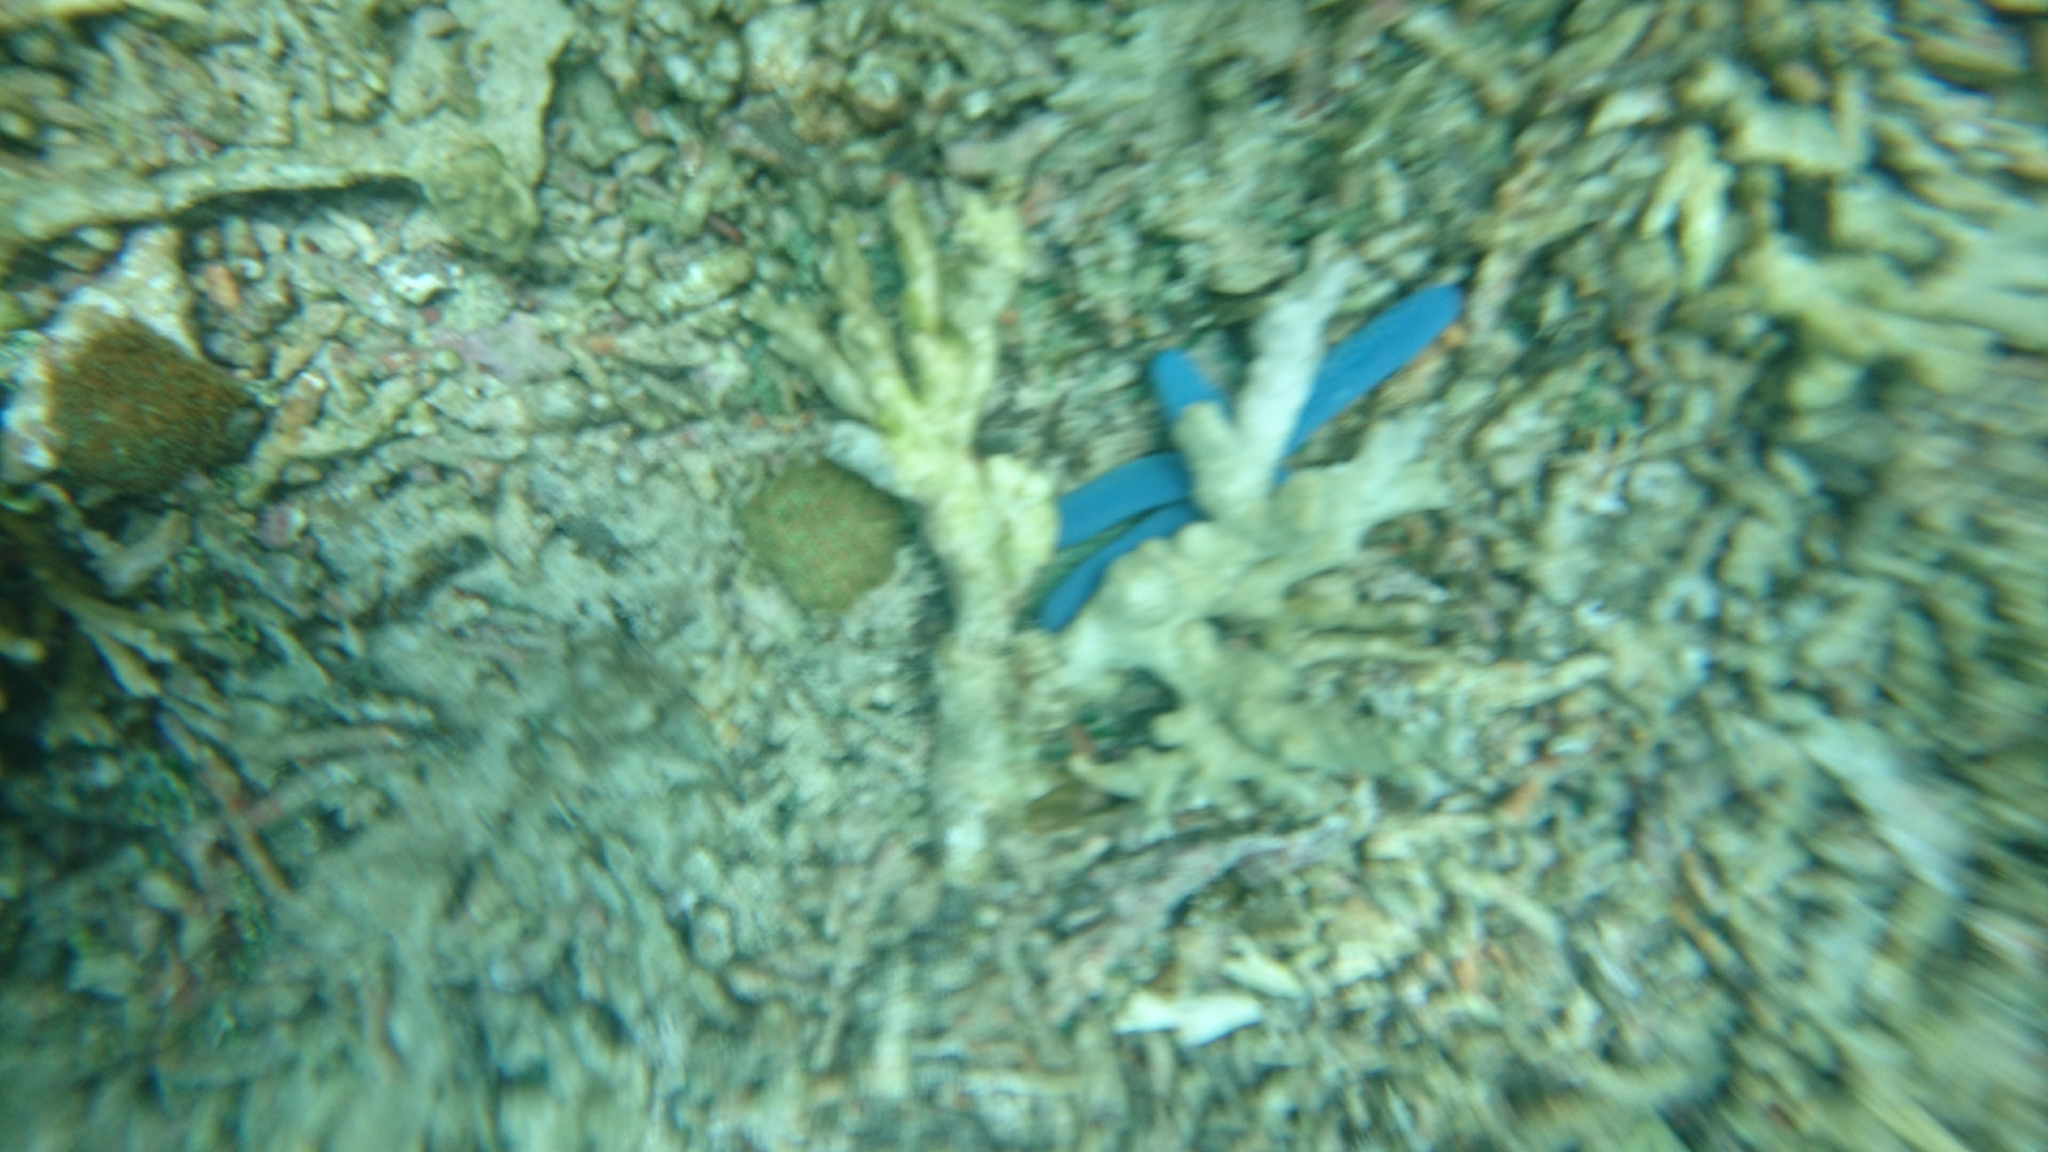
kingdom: Animalia
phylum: Echinodermata
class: Asteroidea
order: Valvatida
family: Ophidiasteridae
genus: Linckia
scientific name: Linckia laevigata
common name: Azure sea star
